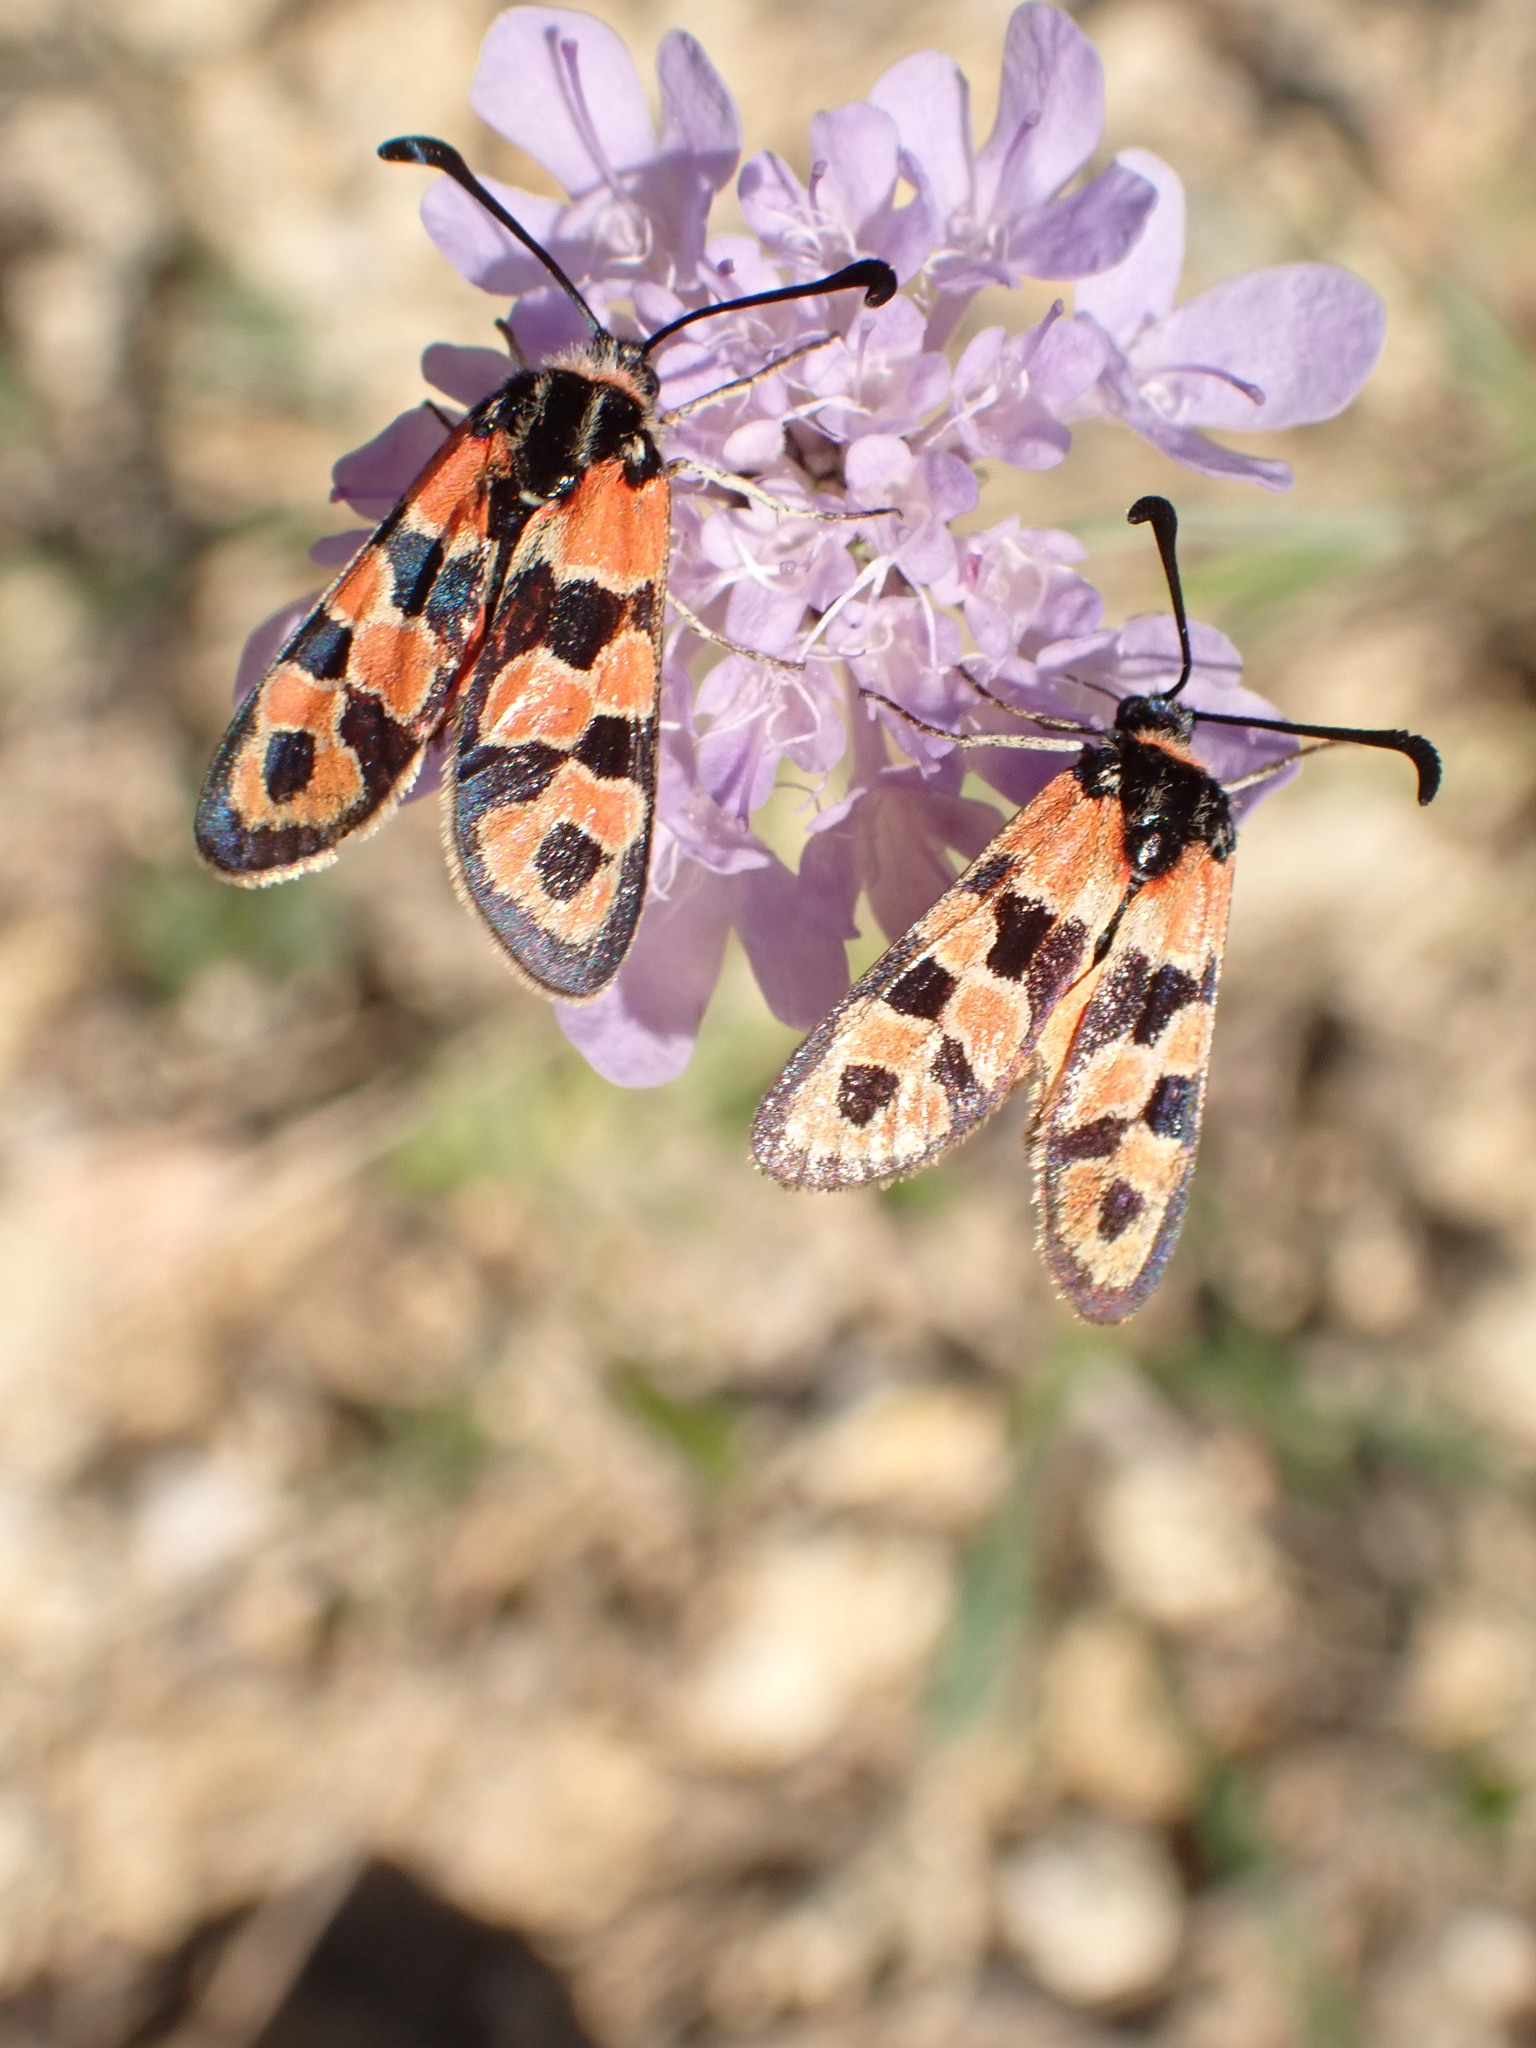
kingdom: Animalia
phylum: Arthropoda
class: Insecta
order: Lepidoptera
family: Zygaenidae
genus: Zygaena
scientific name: Zygaena fausta
